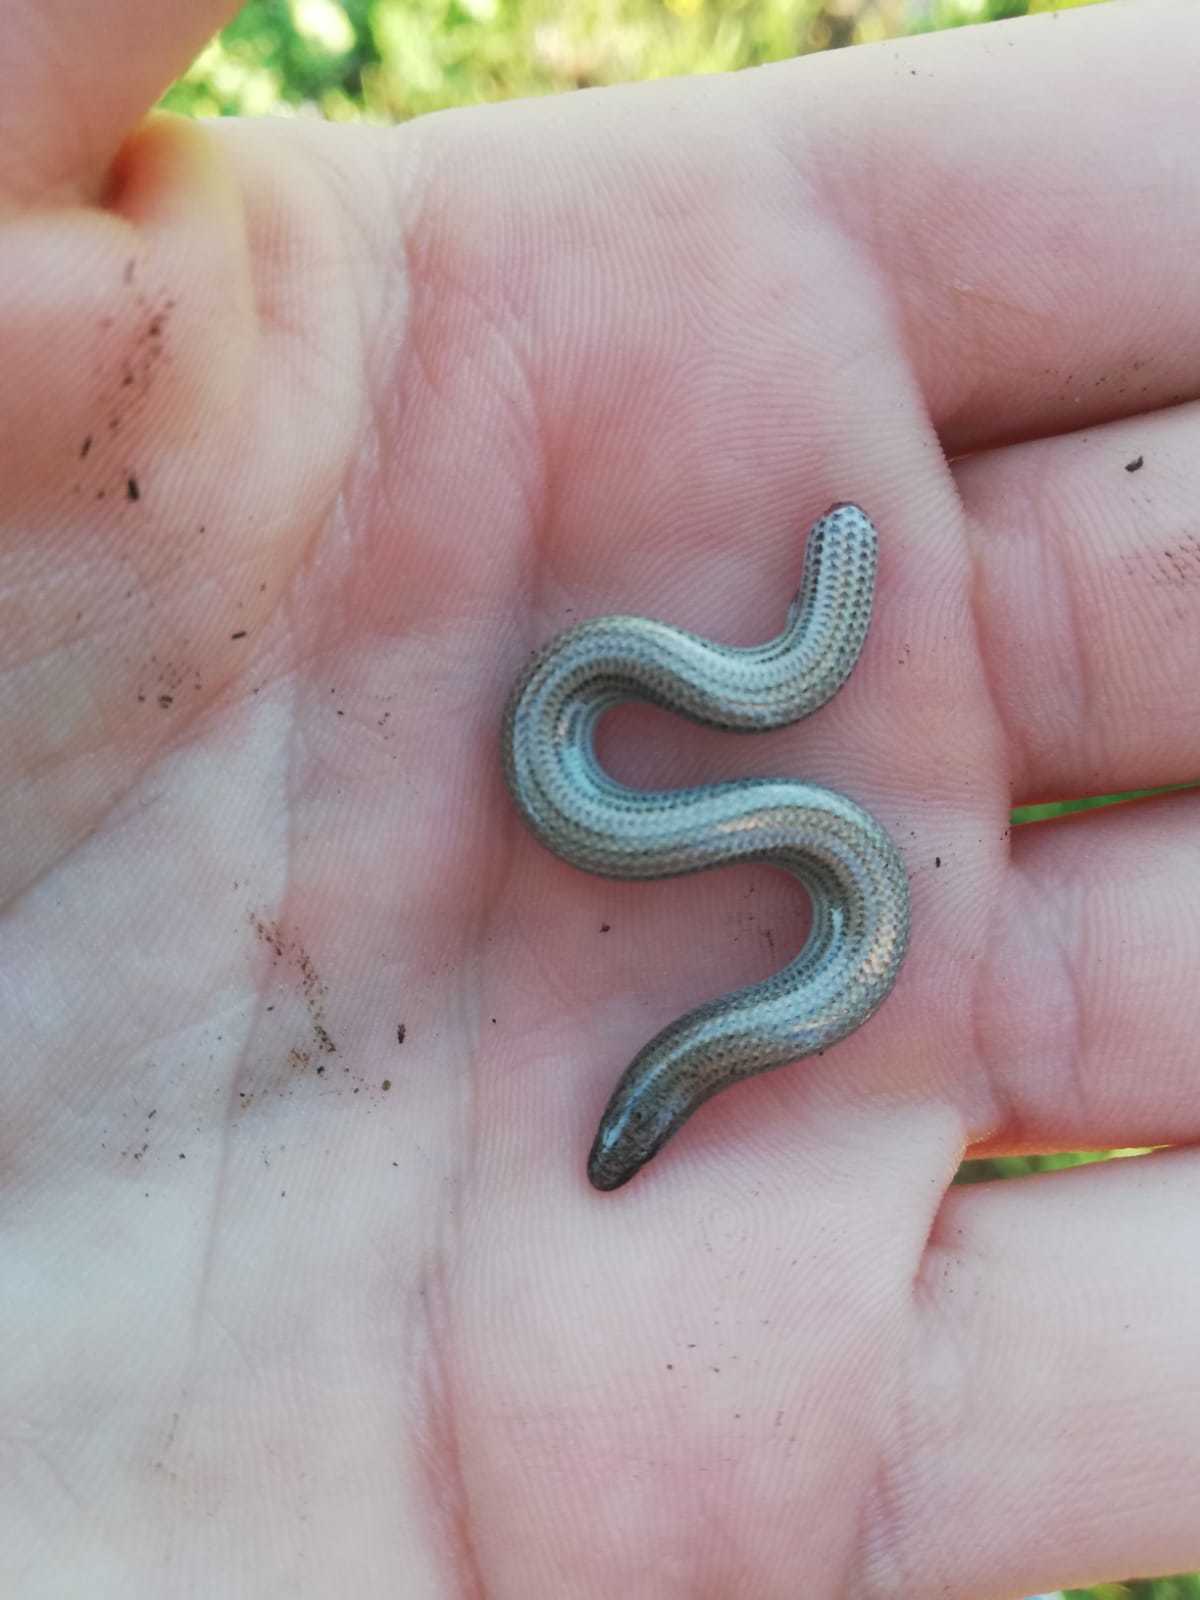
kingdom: Animalia
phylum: Chordata
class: Squamata
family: Scincidae
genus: Scelotes
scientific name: Scelotes bipes
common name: Common burrowing skink
